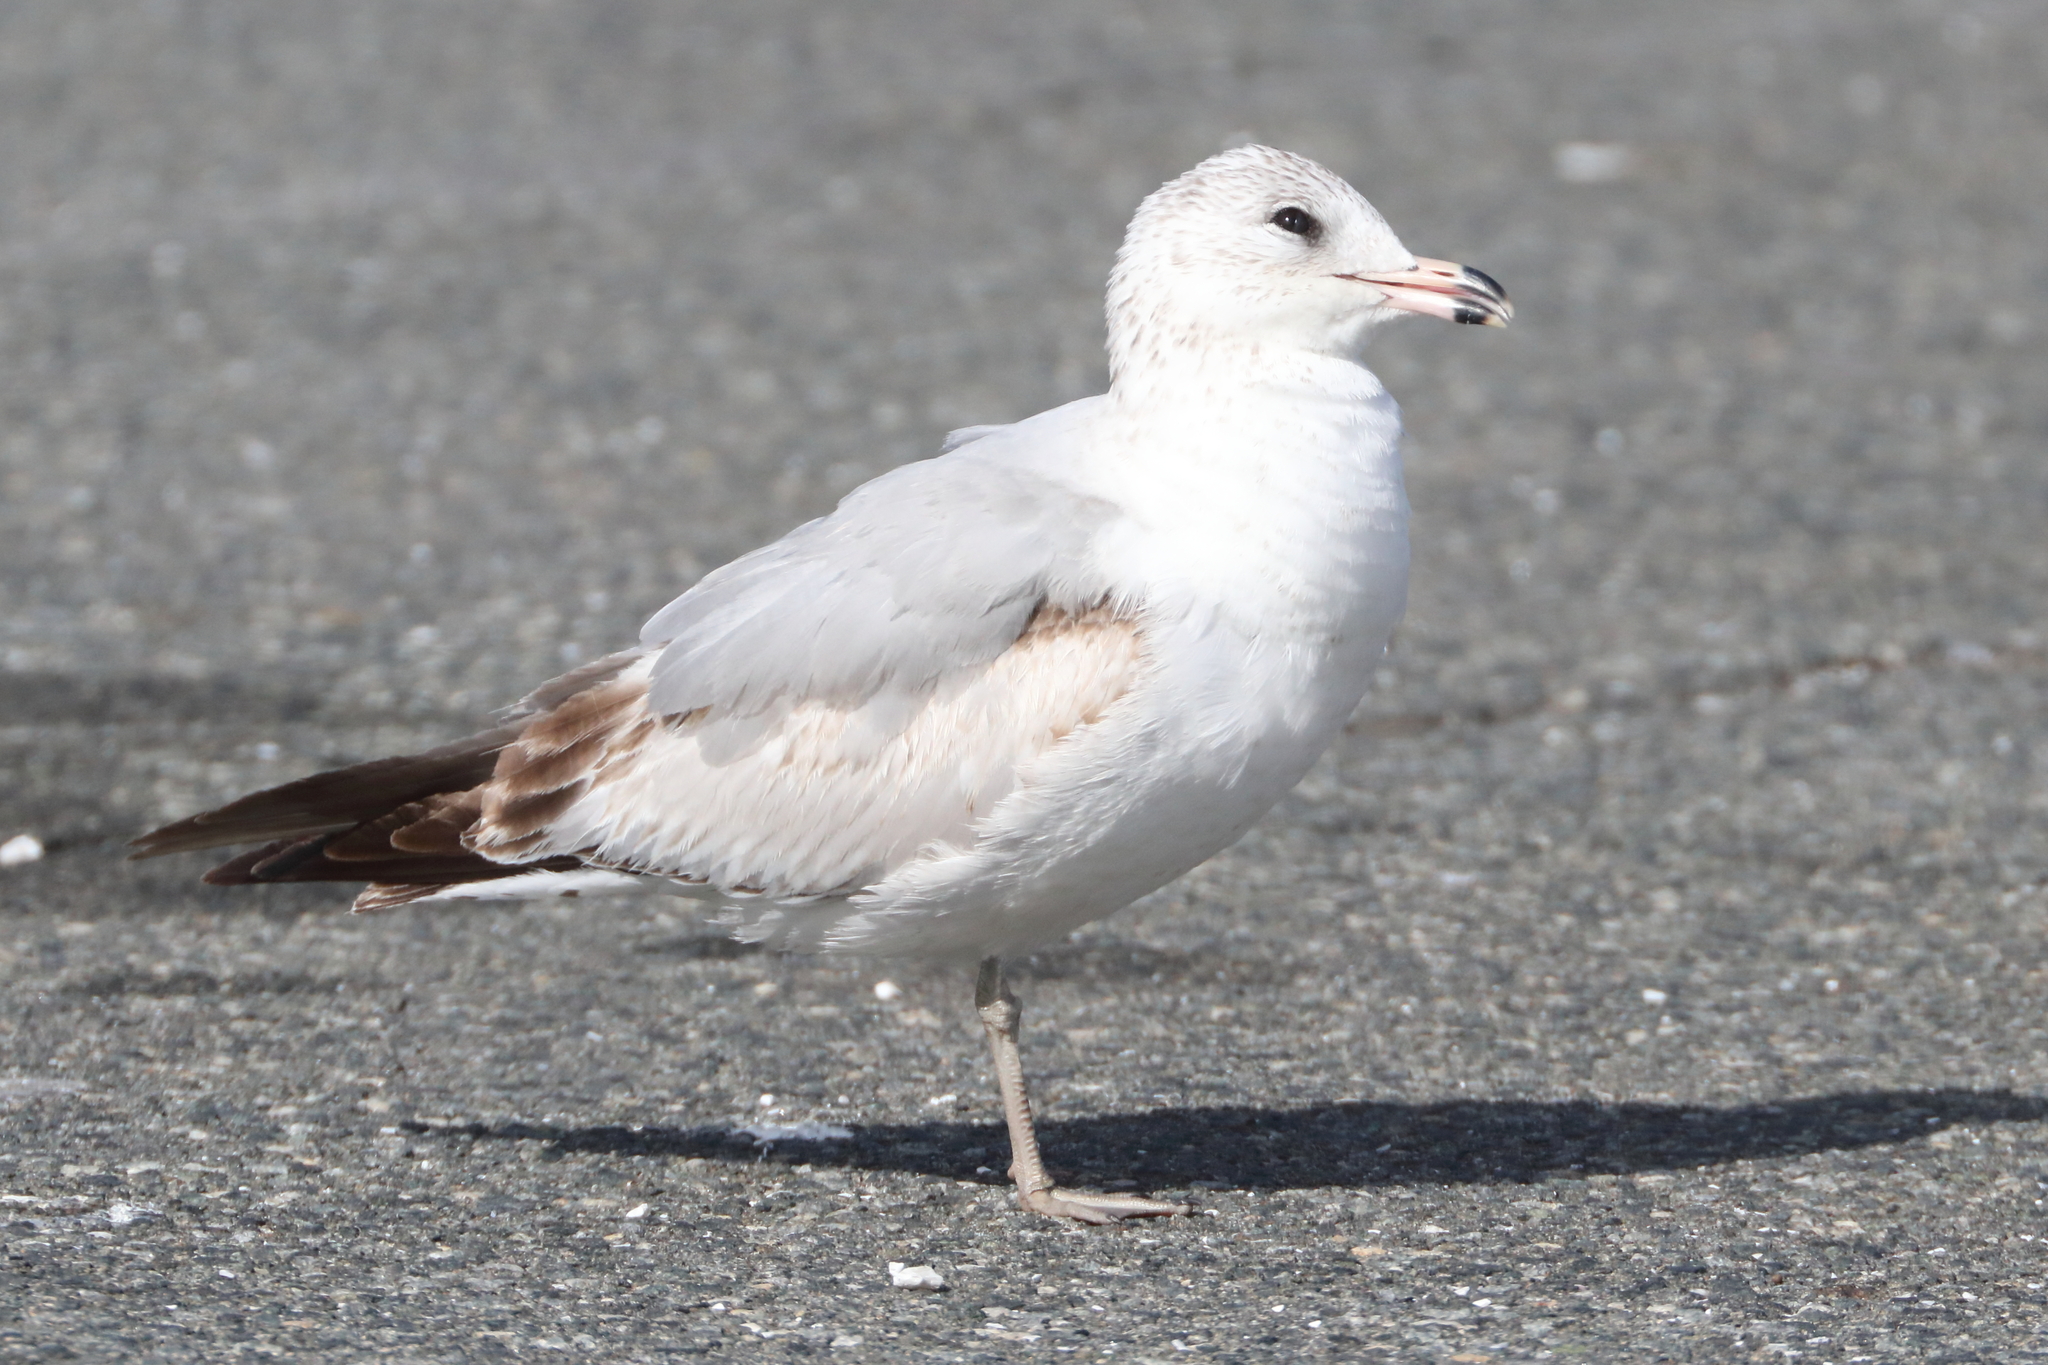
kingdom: Animalia
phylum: Chordata
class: Aves
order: Charadriiformes
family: Laridae
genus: Larus
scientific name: Larus delawarensis
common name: Ring-billed gull
